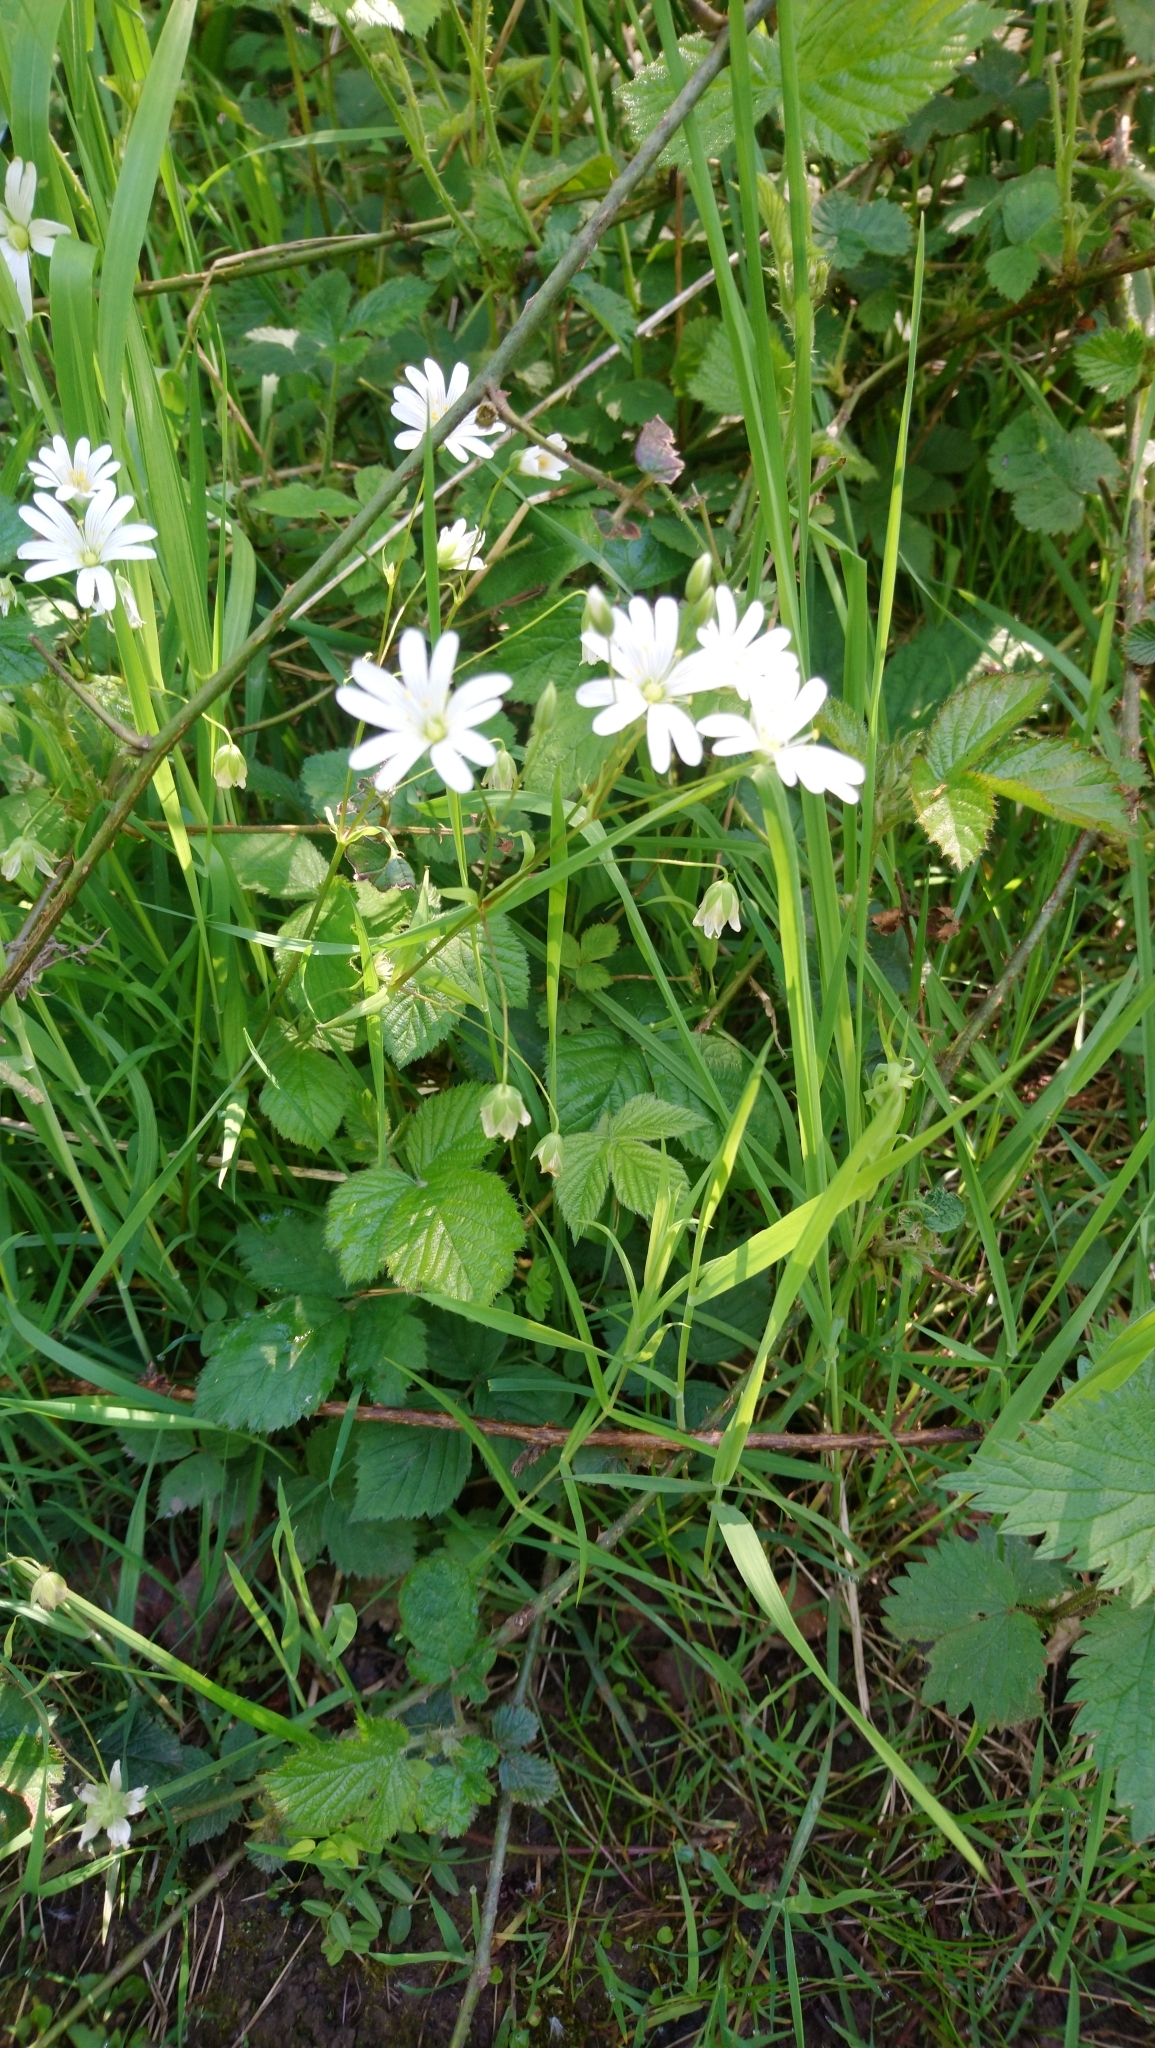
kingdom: Plantae
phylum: Tracheophyta
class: Magnoliopsida
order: Caryophyllales
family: Caryophyllaceae
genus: Rabelera
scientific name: Rabelera holostea
